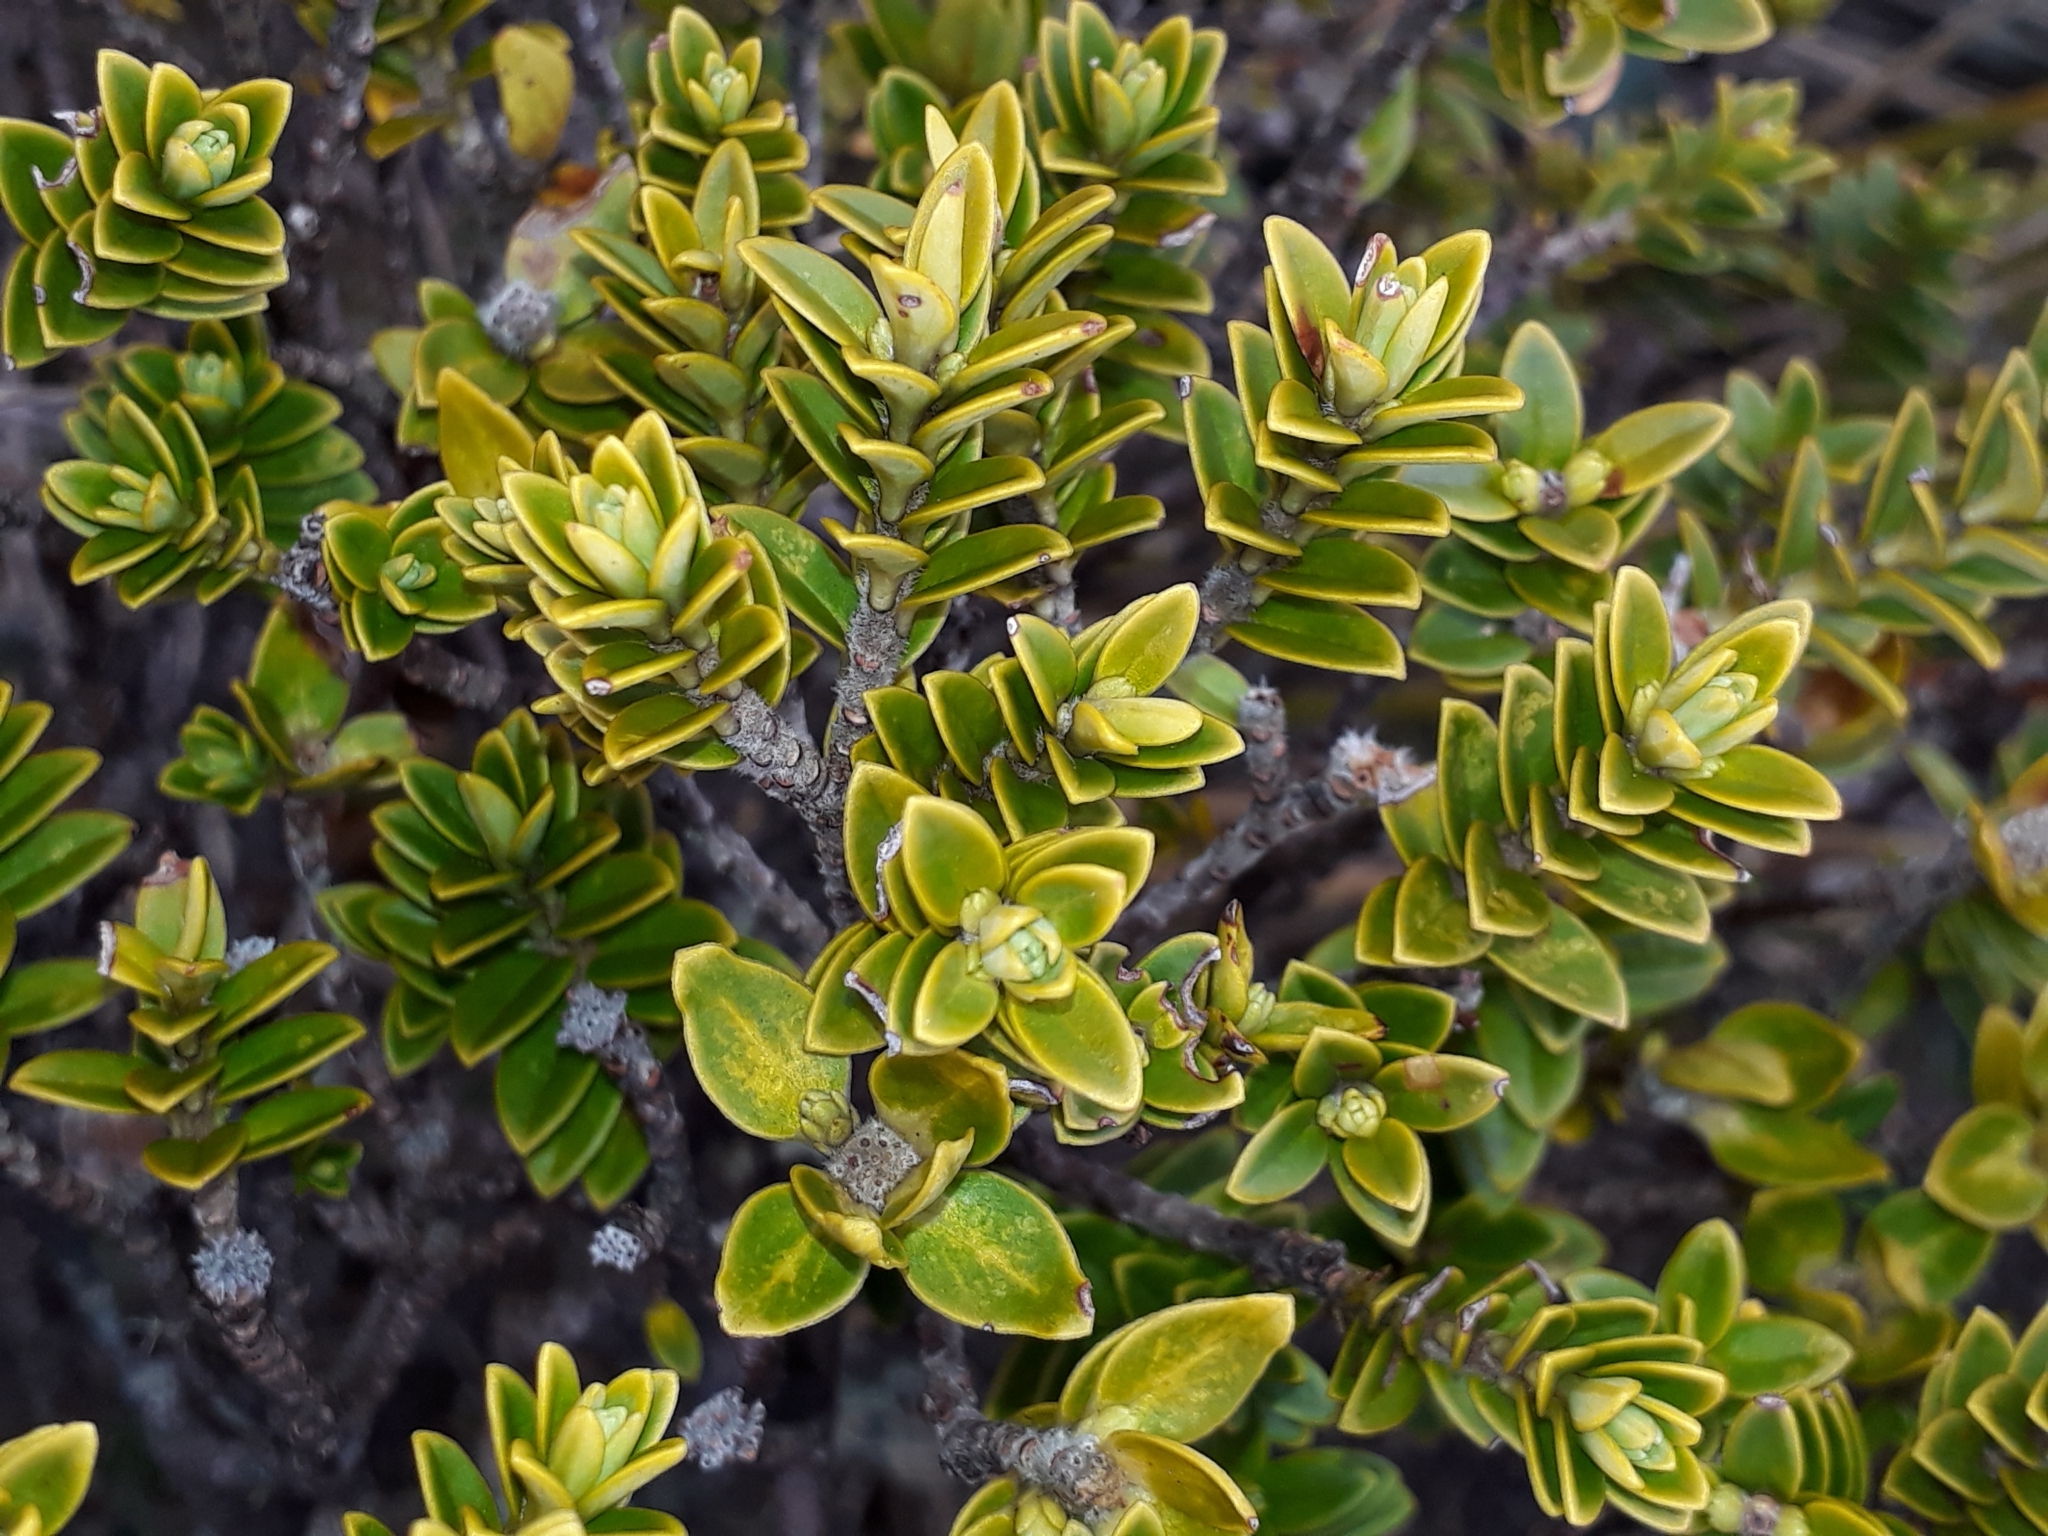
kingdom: Plantae
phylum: Tracheophyta
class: Magnoliopsida
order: Lamiales
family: Plantaginaceae
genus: Veronica
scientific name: Veronica odora
